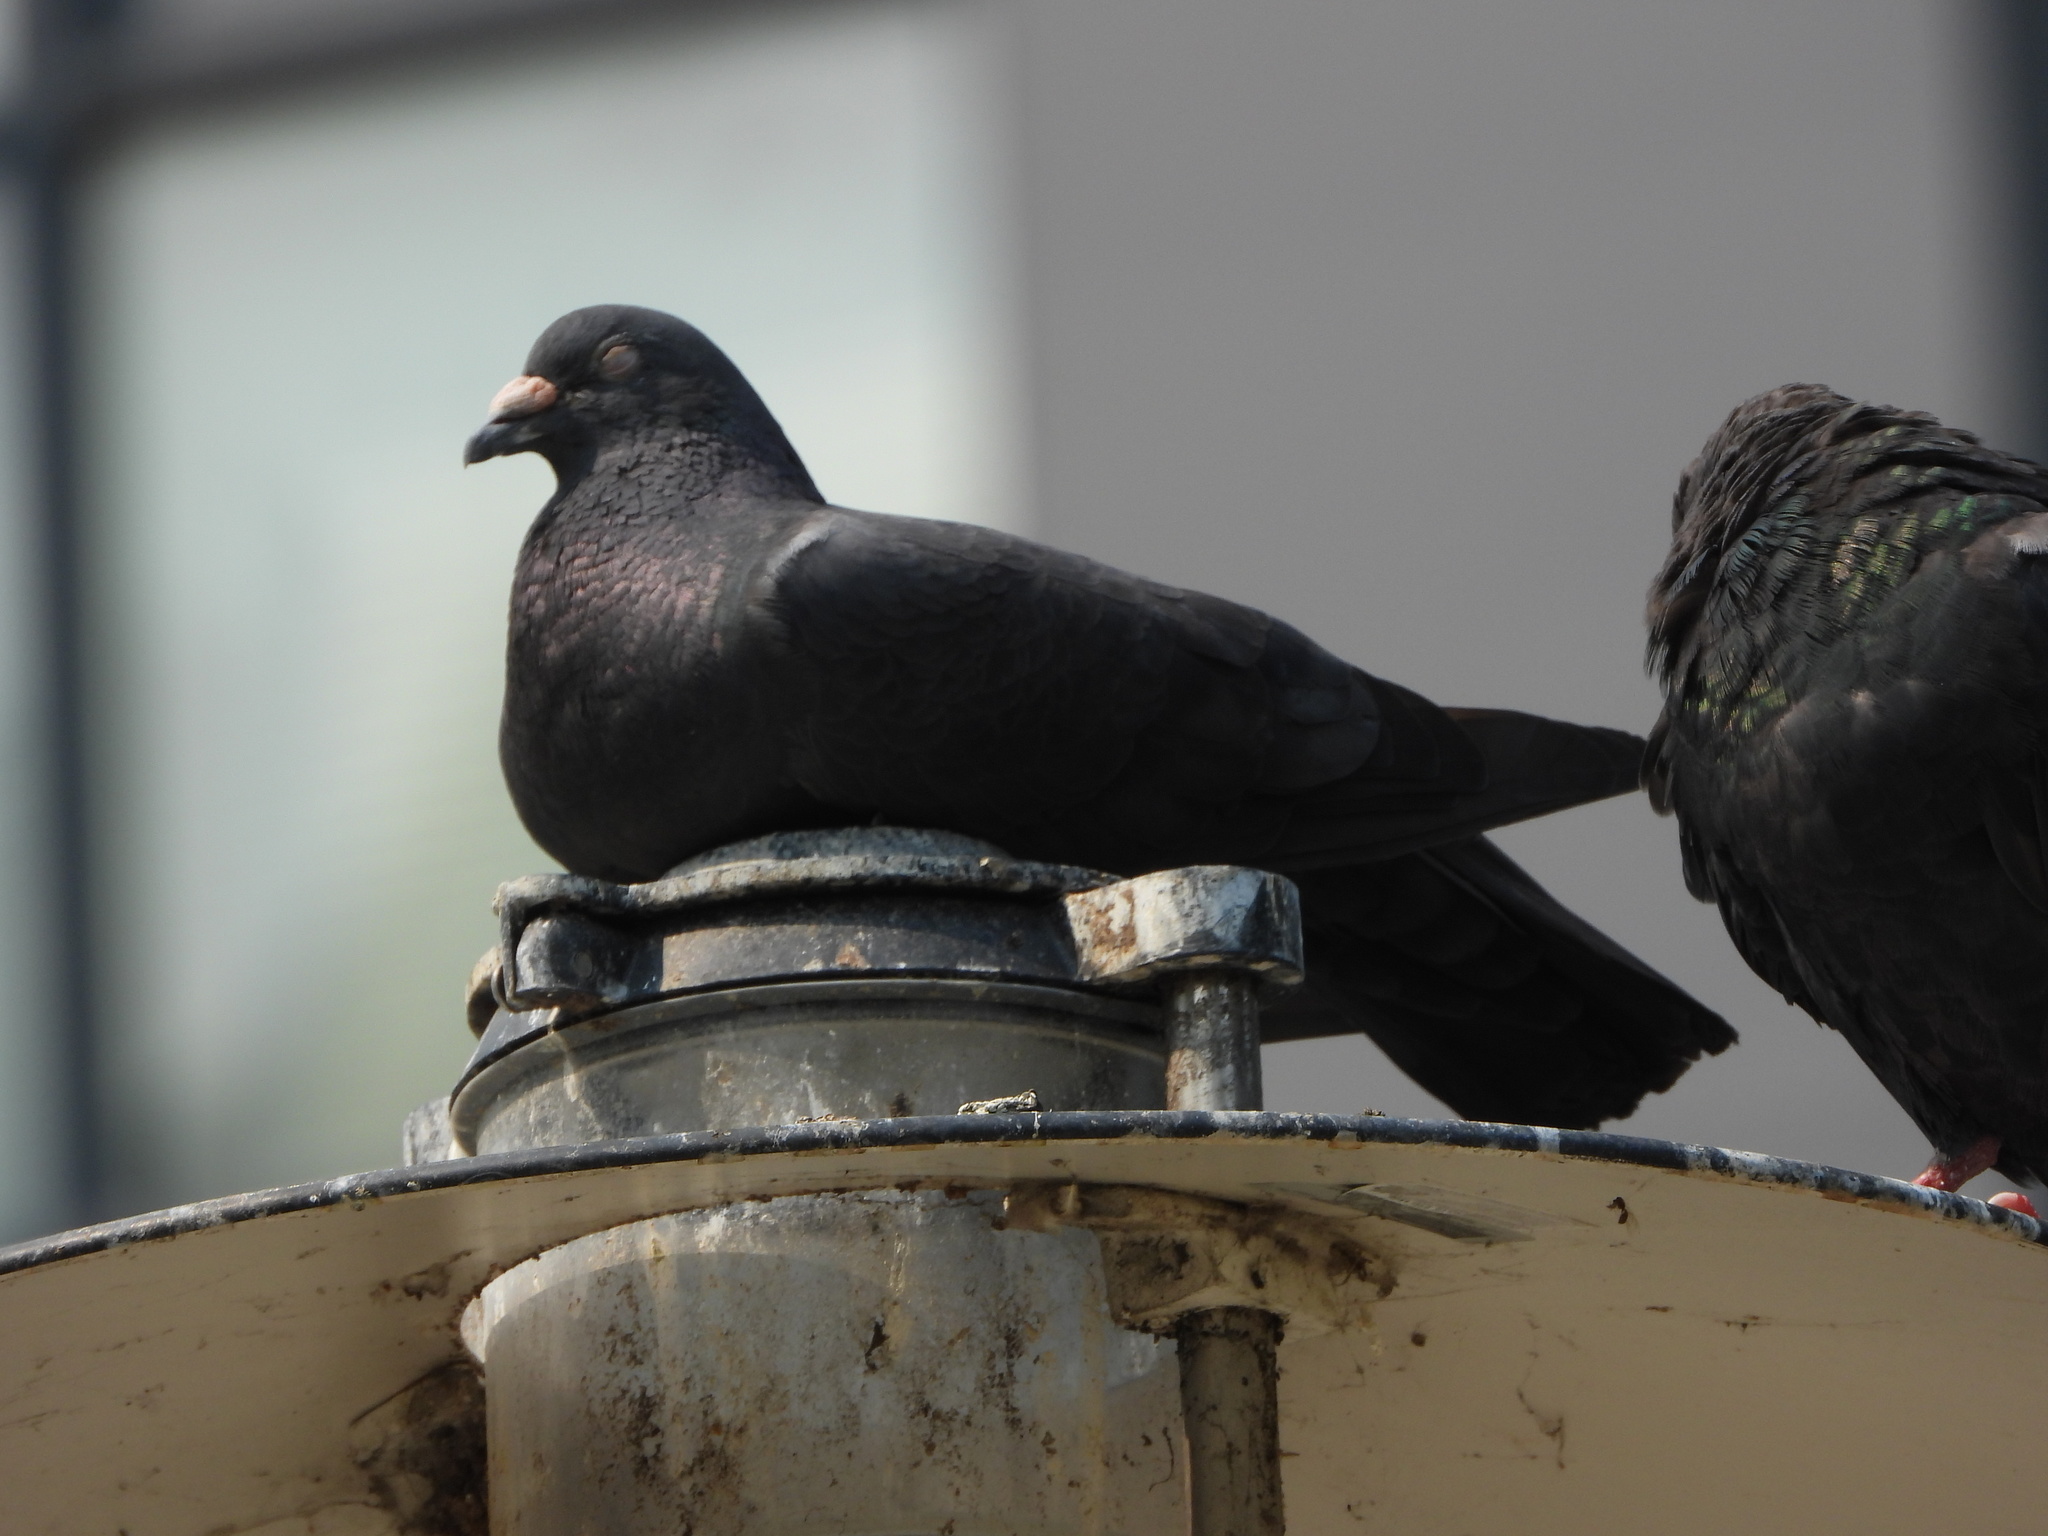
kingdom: Animalia
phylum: Chordata
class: Aves
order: Columbiformes
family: Columbidae
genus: Columba
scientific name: Columba livia
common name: Rock pigeon
